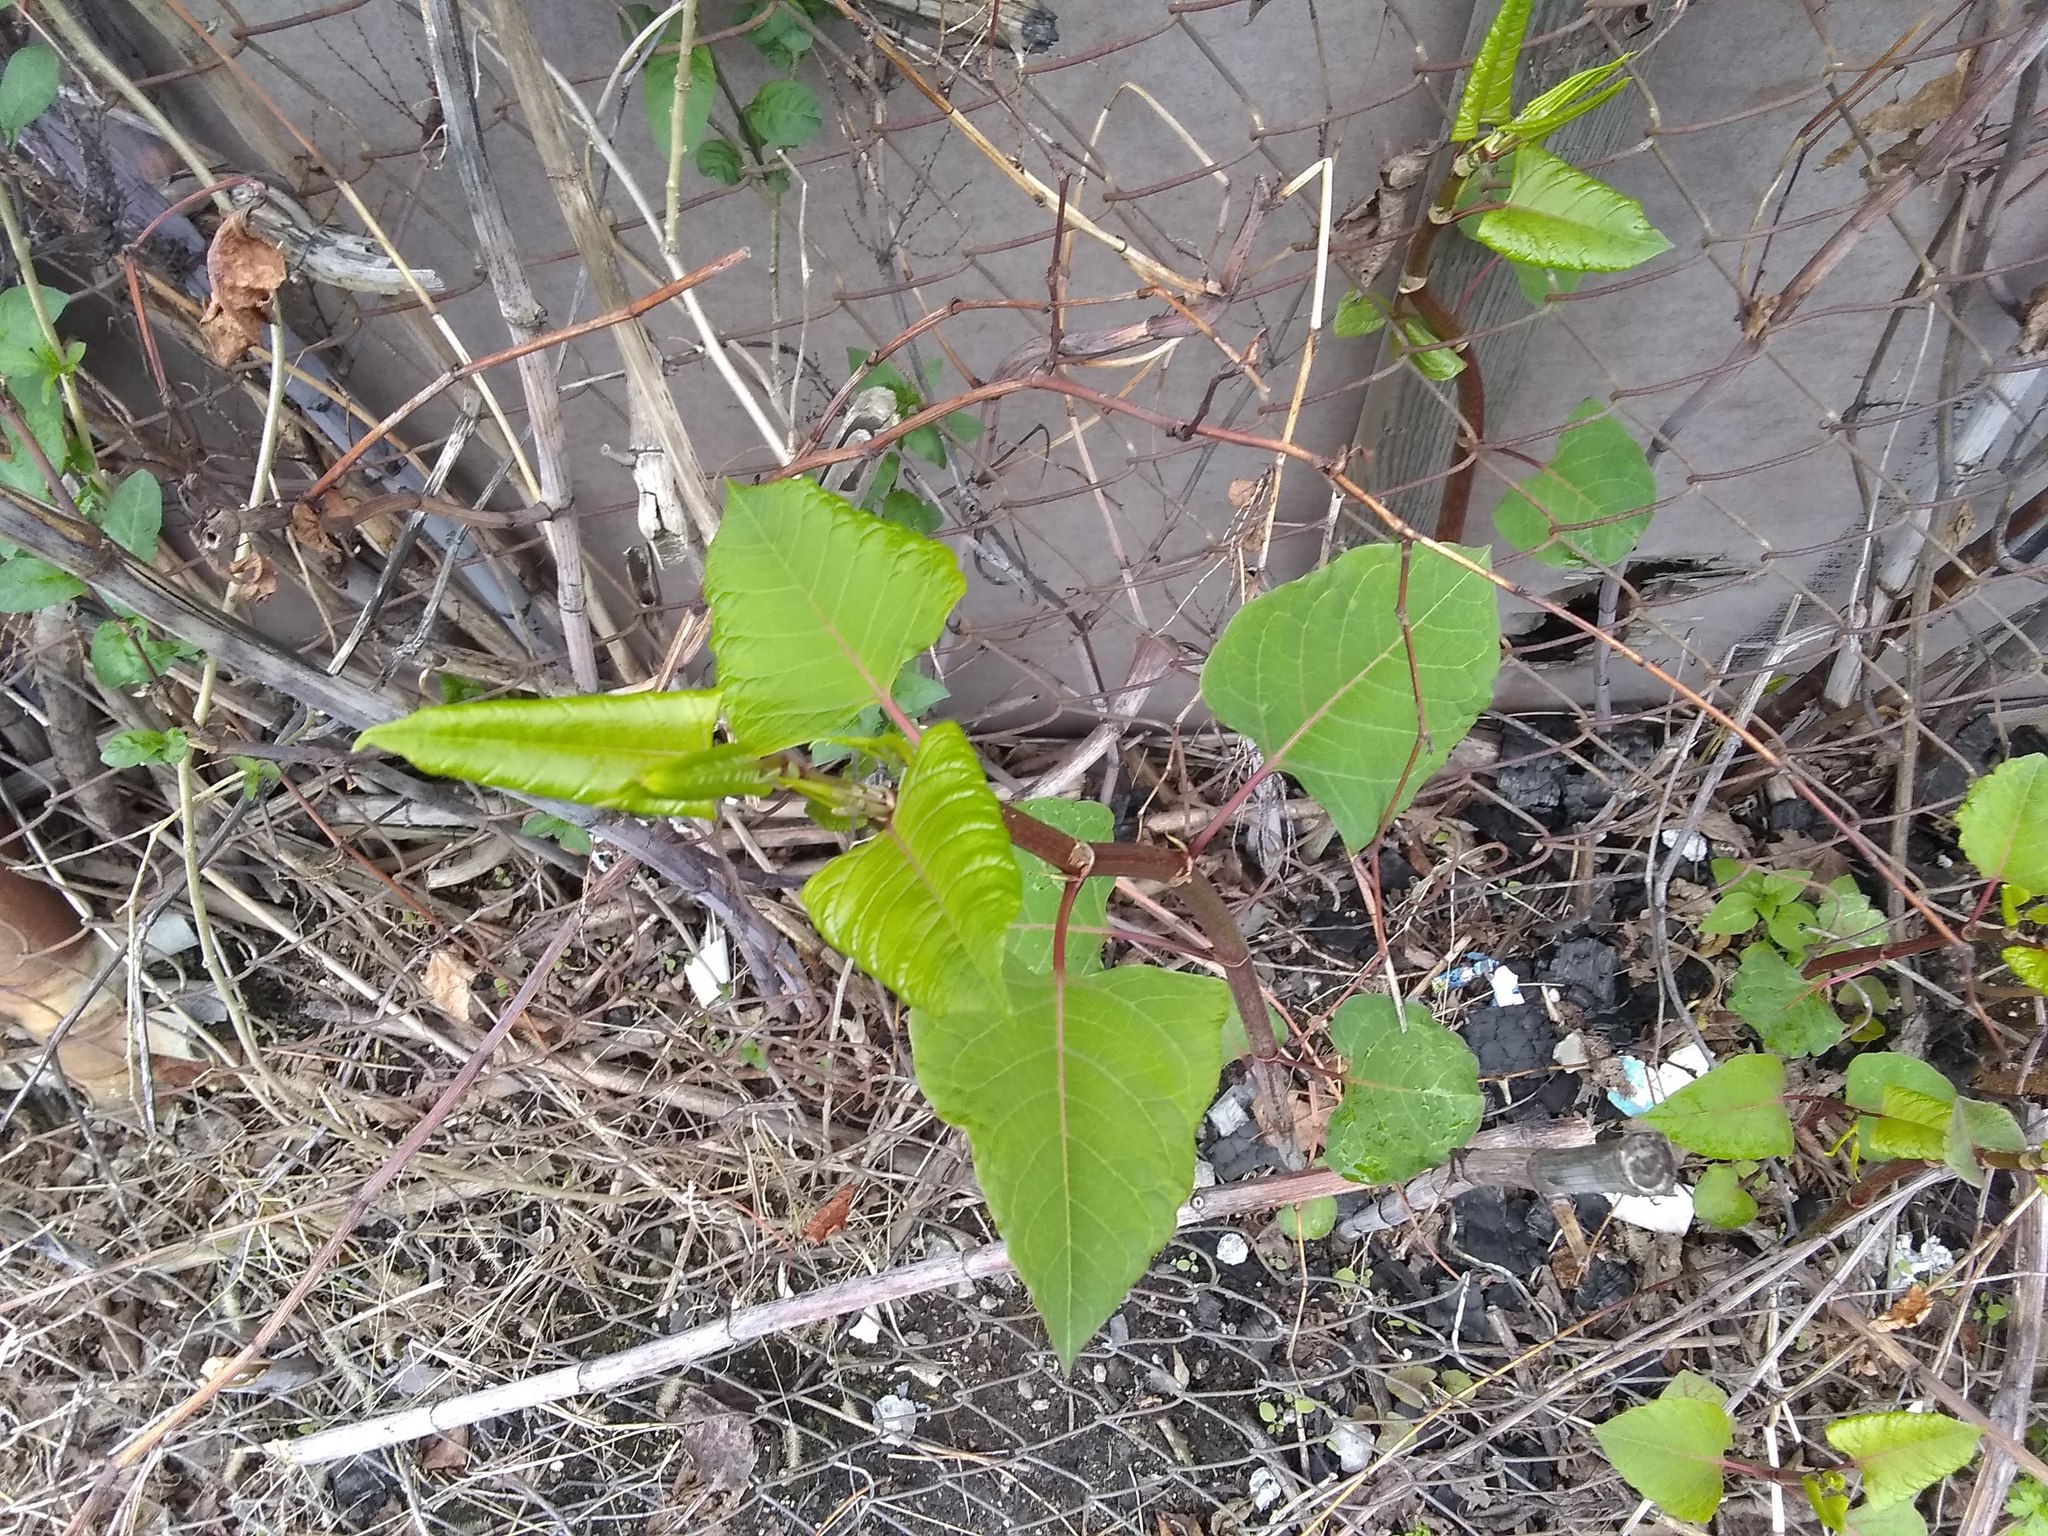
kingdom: Plantae
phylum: Tracheophyta
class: Magnoliopsida
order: Caryophyllales
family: Polygonaceae
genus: Reynoutria
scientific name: Reynoutria japonica
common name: Japanese knotweed
